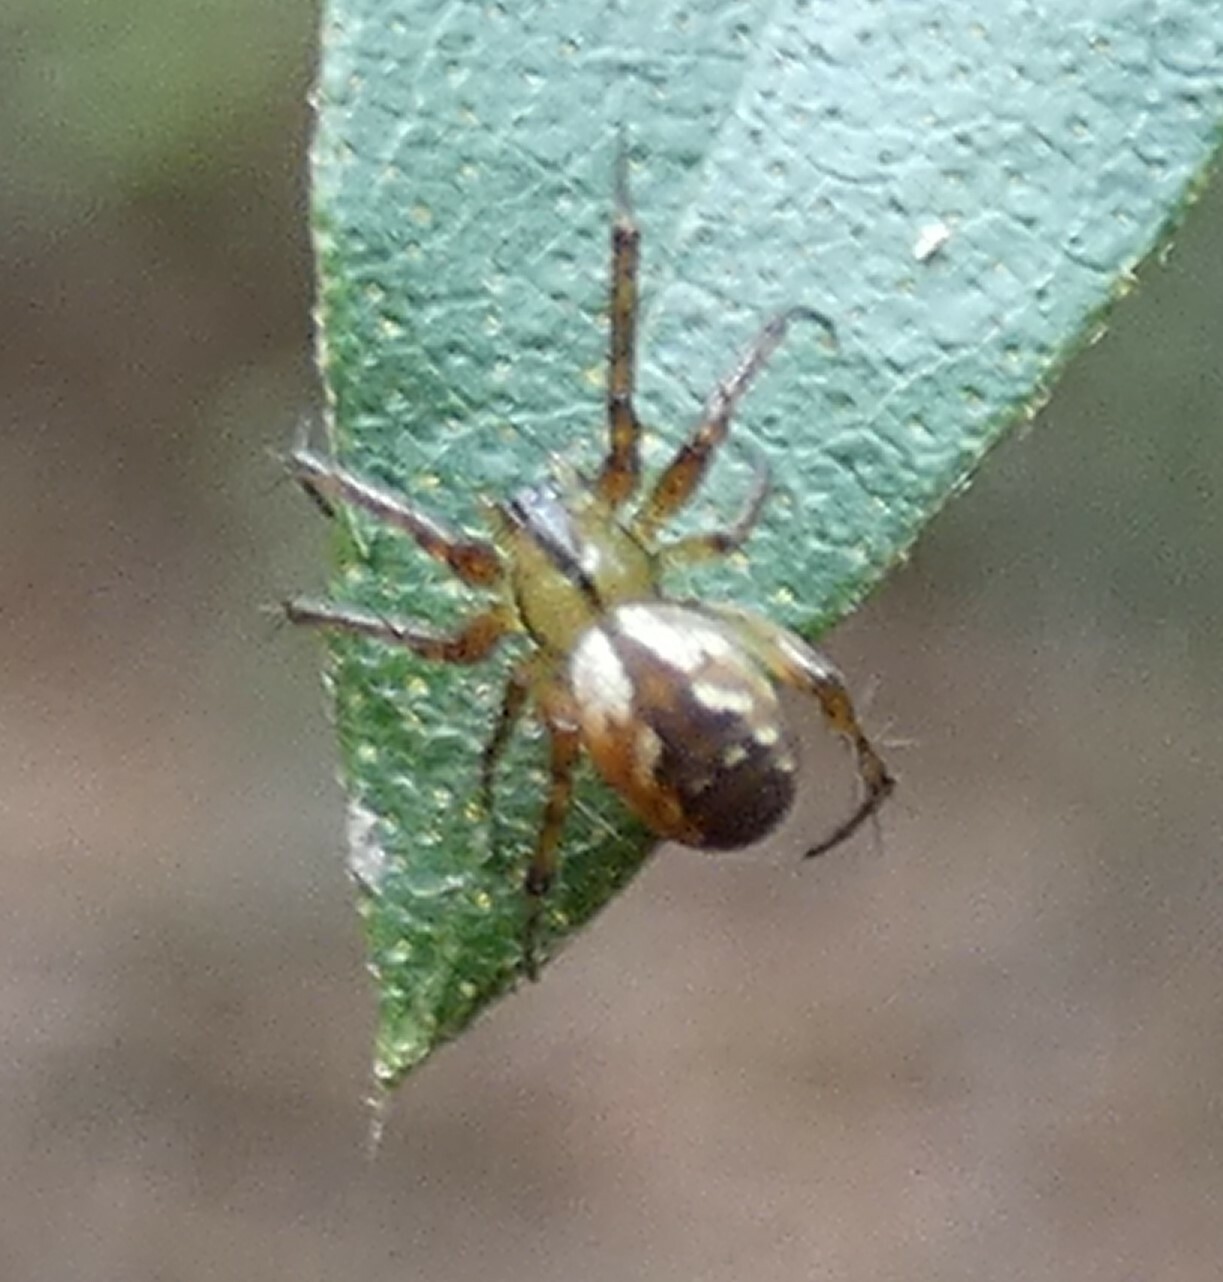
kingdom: Animalia
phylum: Arthropoda
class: Arachnida
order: Araneae
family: Araneidae
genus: Mangora
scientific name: Mangora placida
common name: Tuft-legged orbweaver
